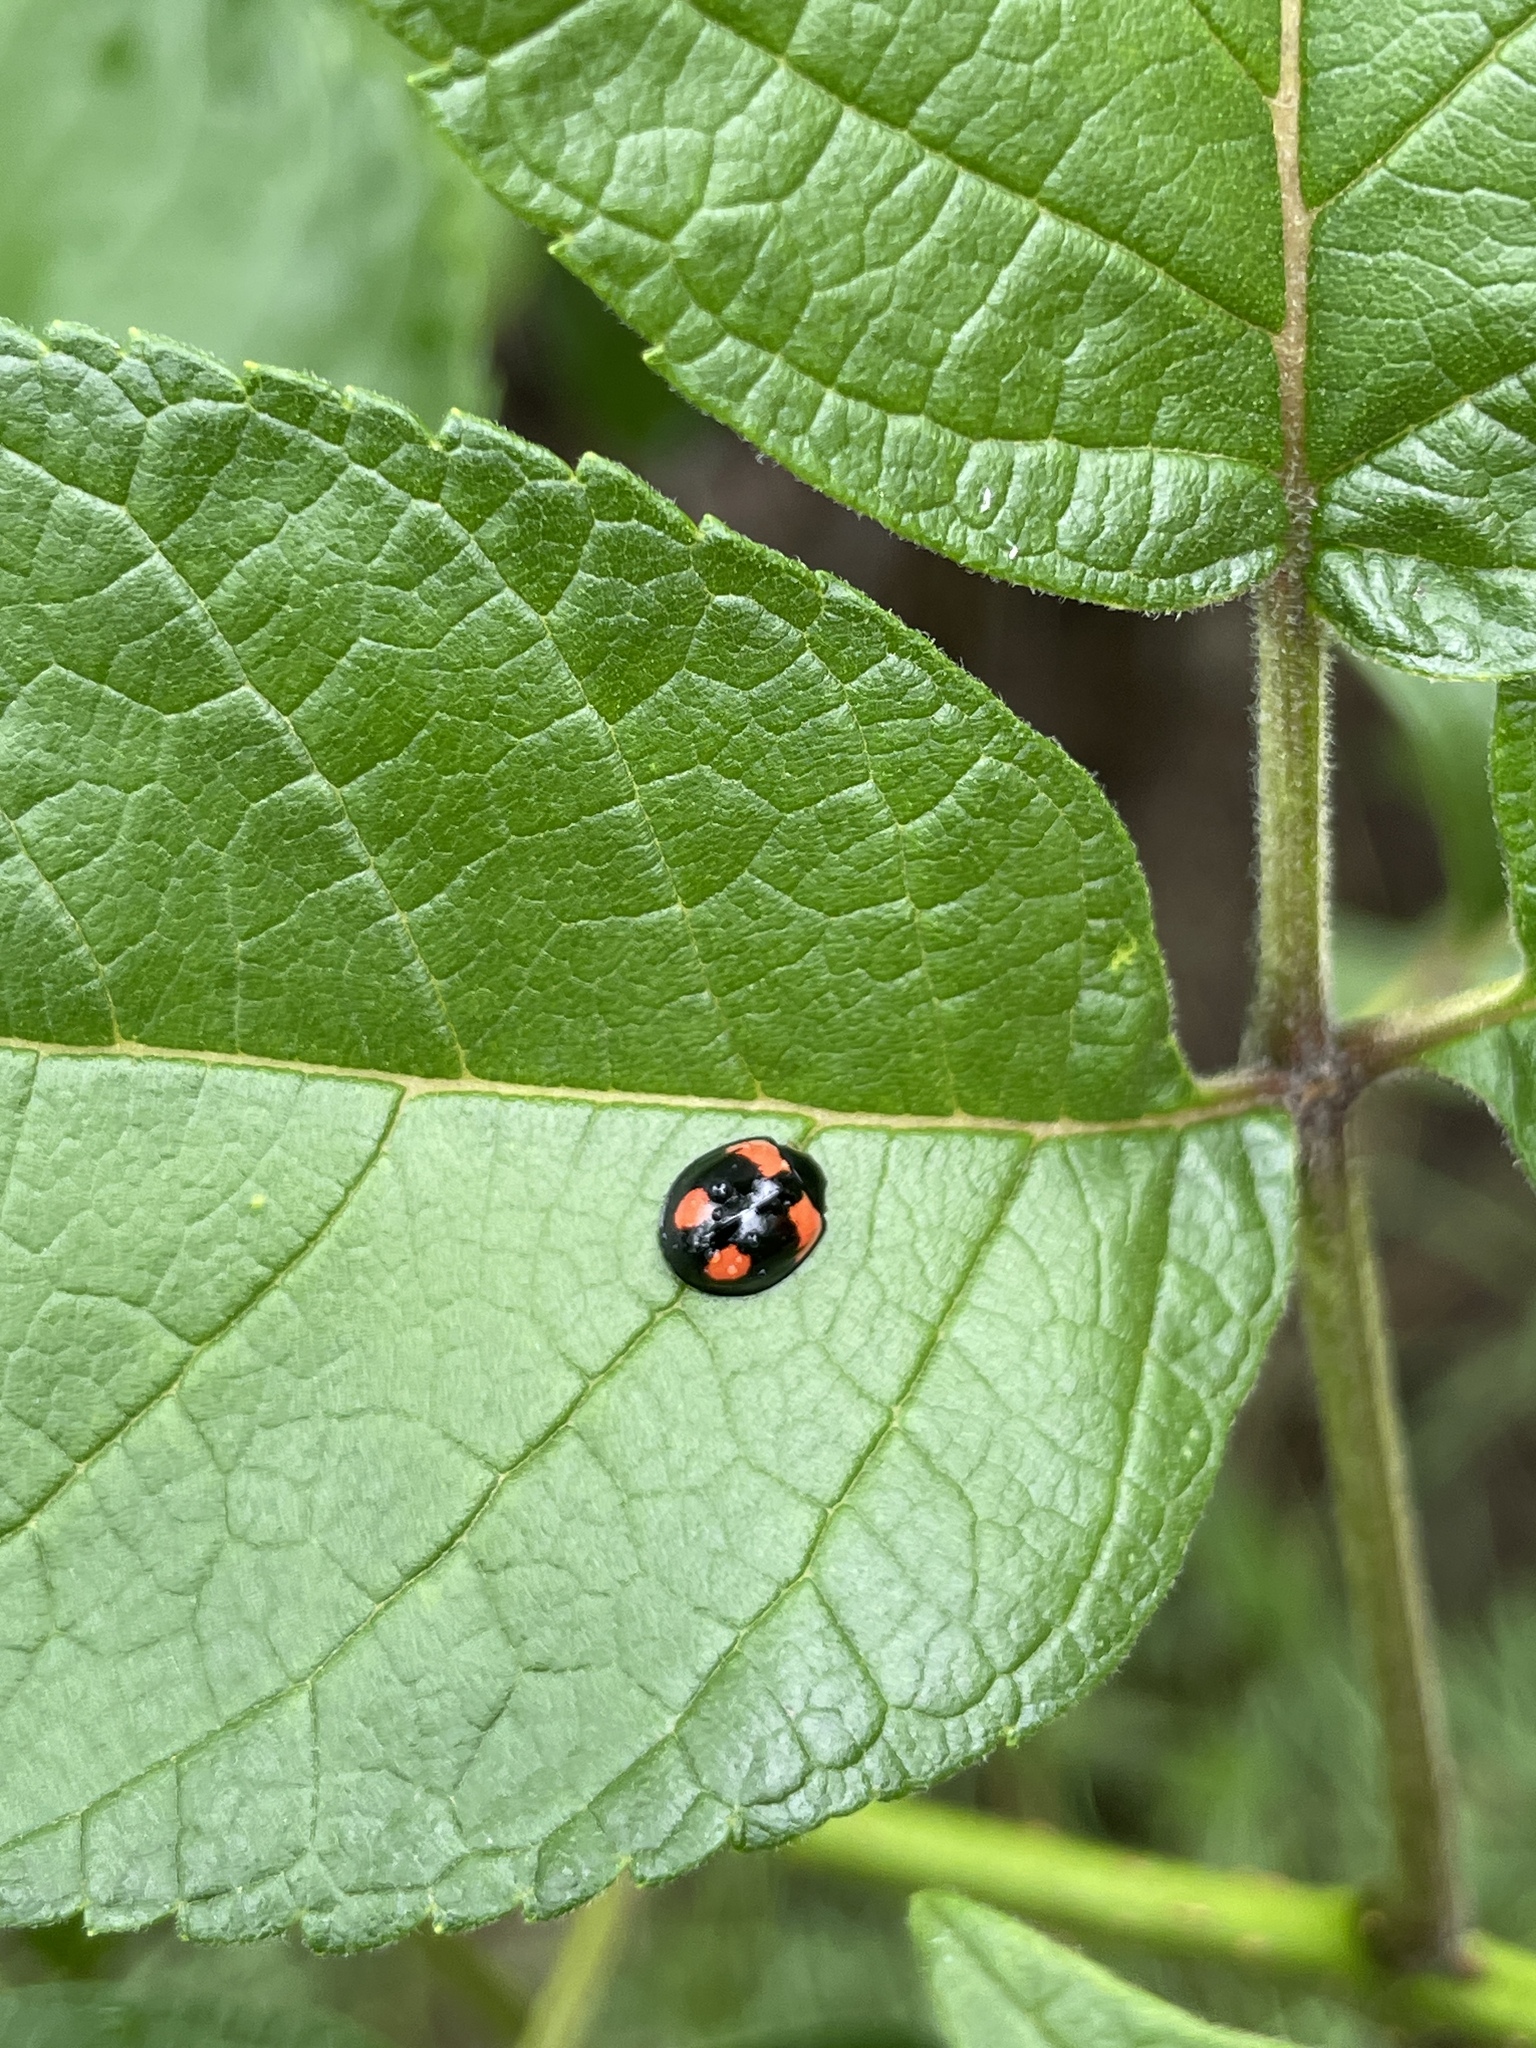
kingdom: Animalia
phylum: Arthropoda
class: Insecta
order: Coleoptera
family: Coccinellidae
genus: Cheilomenes
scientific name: Cheilomenes sexmaculata
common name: Ladybird beetle
